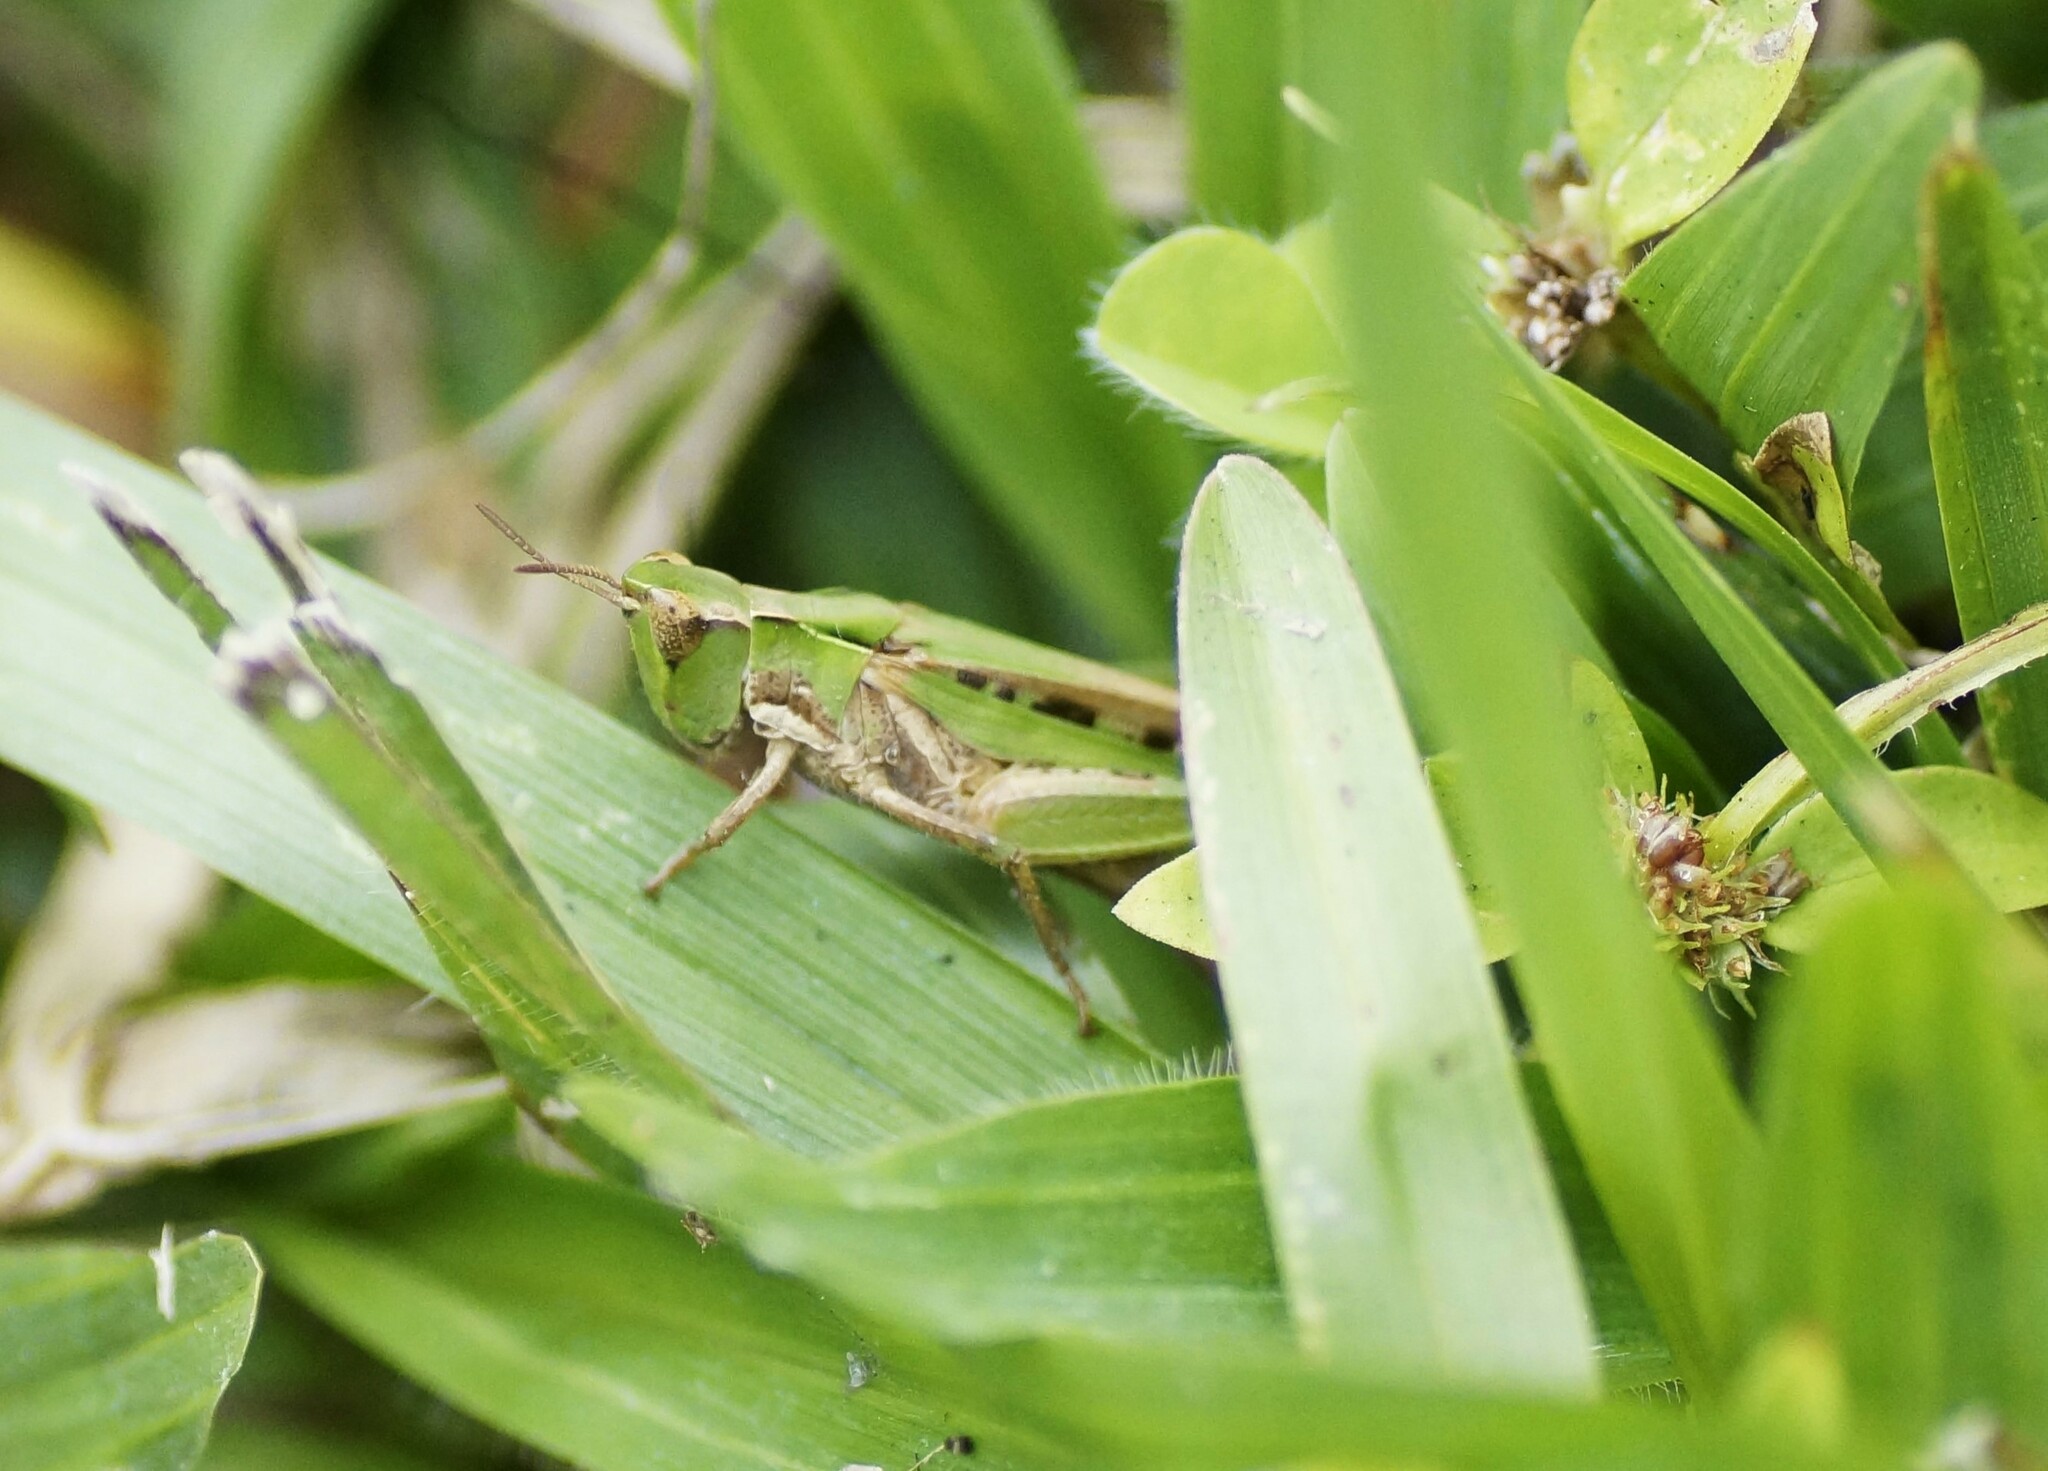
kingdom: Animalia
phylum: Arthropoda
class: Insecta
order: Orthoptera
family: Acrididae
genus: Calephorops
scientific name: Calephorops viridis
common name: Calephorops
